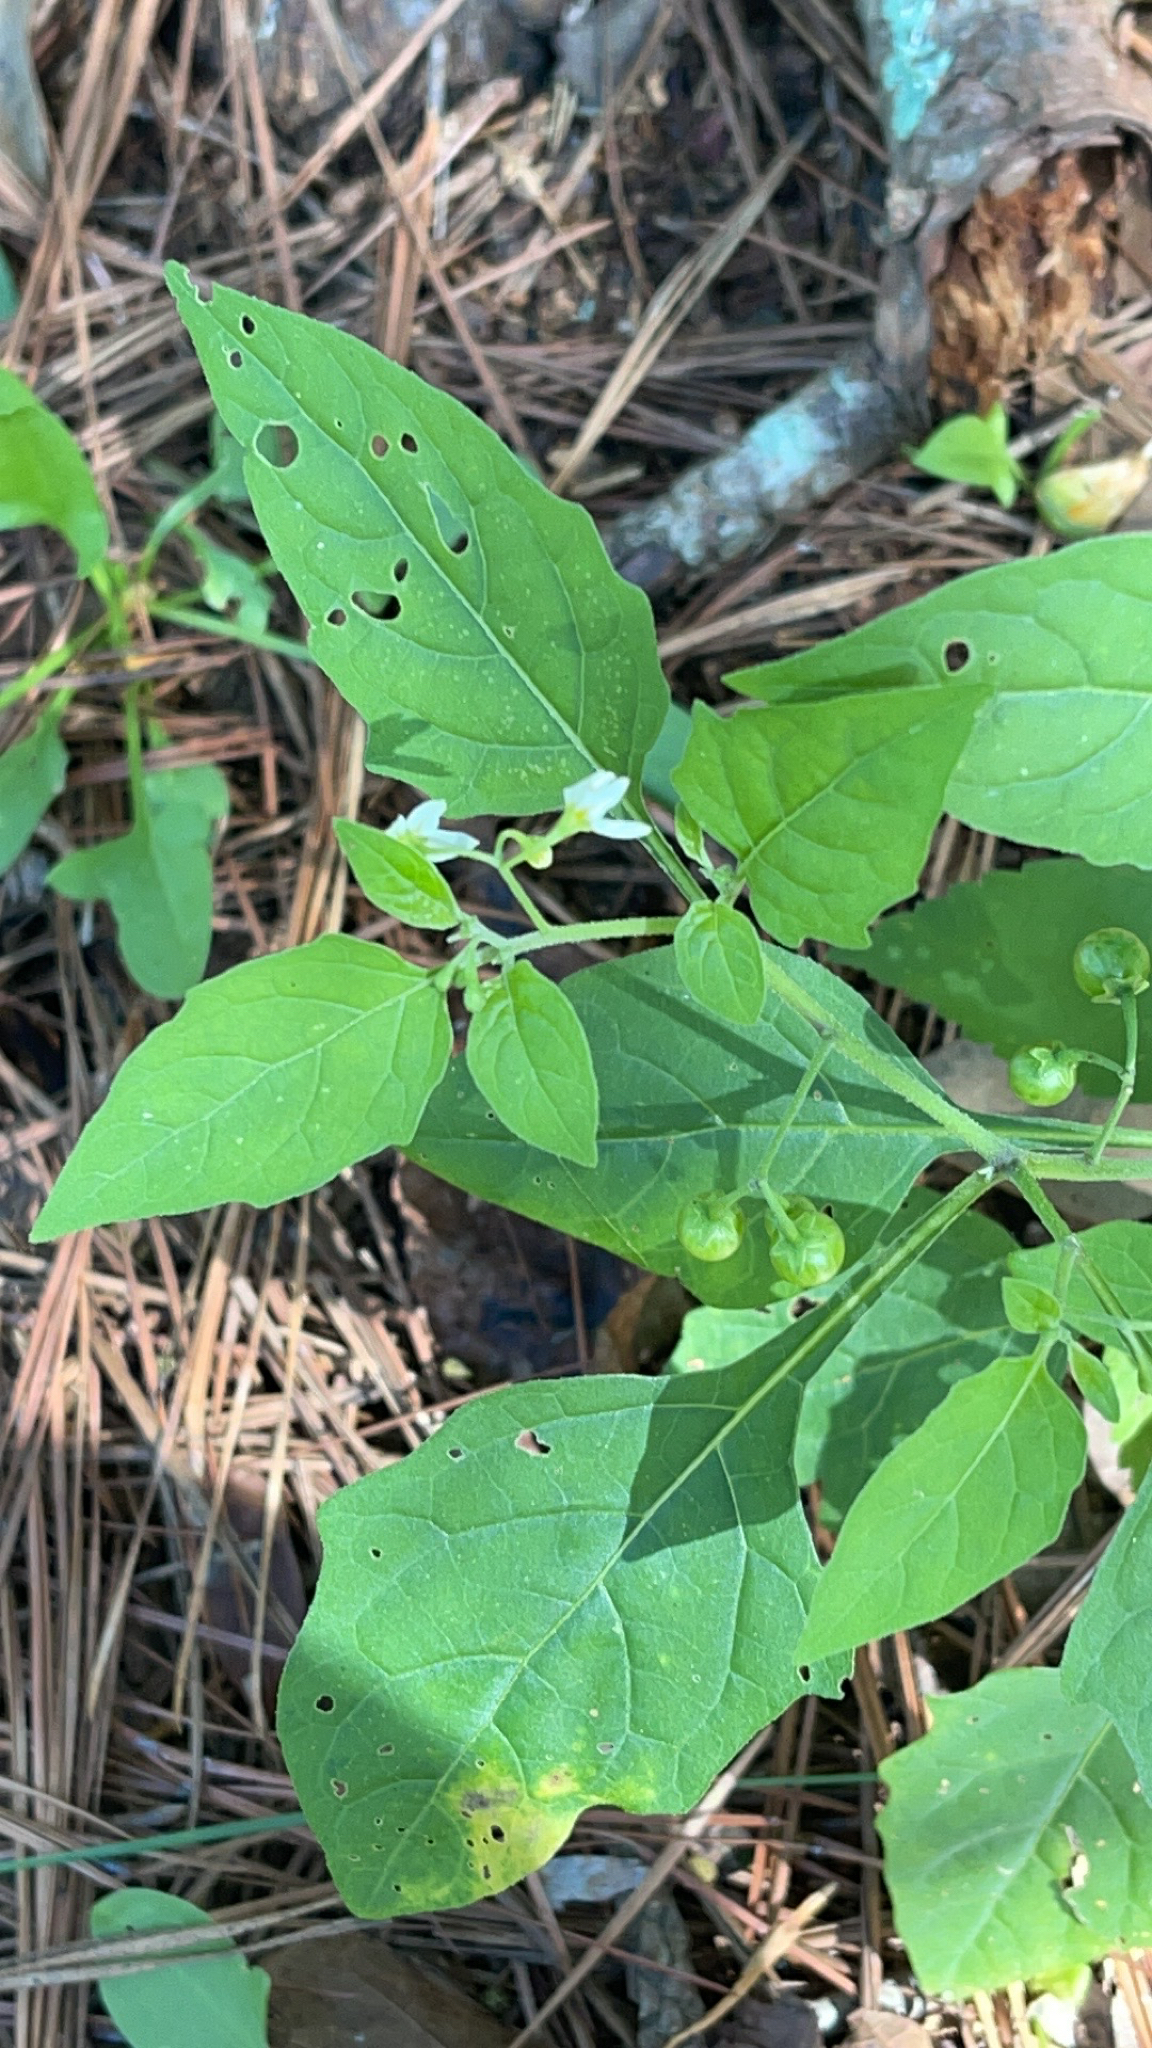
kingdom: Plantae
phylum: Tracheophyta
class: Magnoliopsida
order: Solanales
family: Solanaceae
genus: Solanum
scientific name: Solanum emulans
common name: Eastern black nightshade
